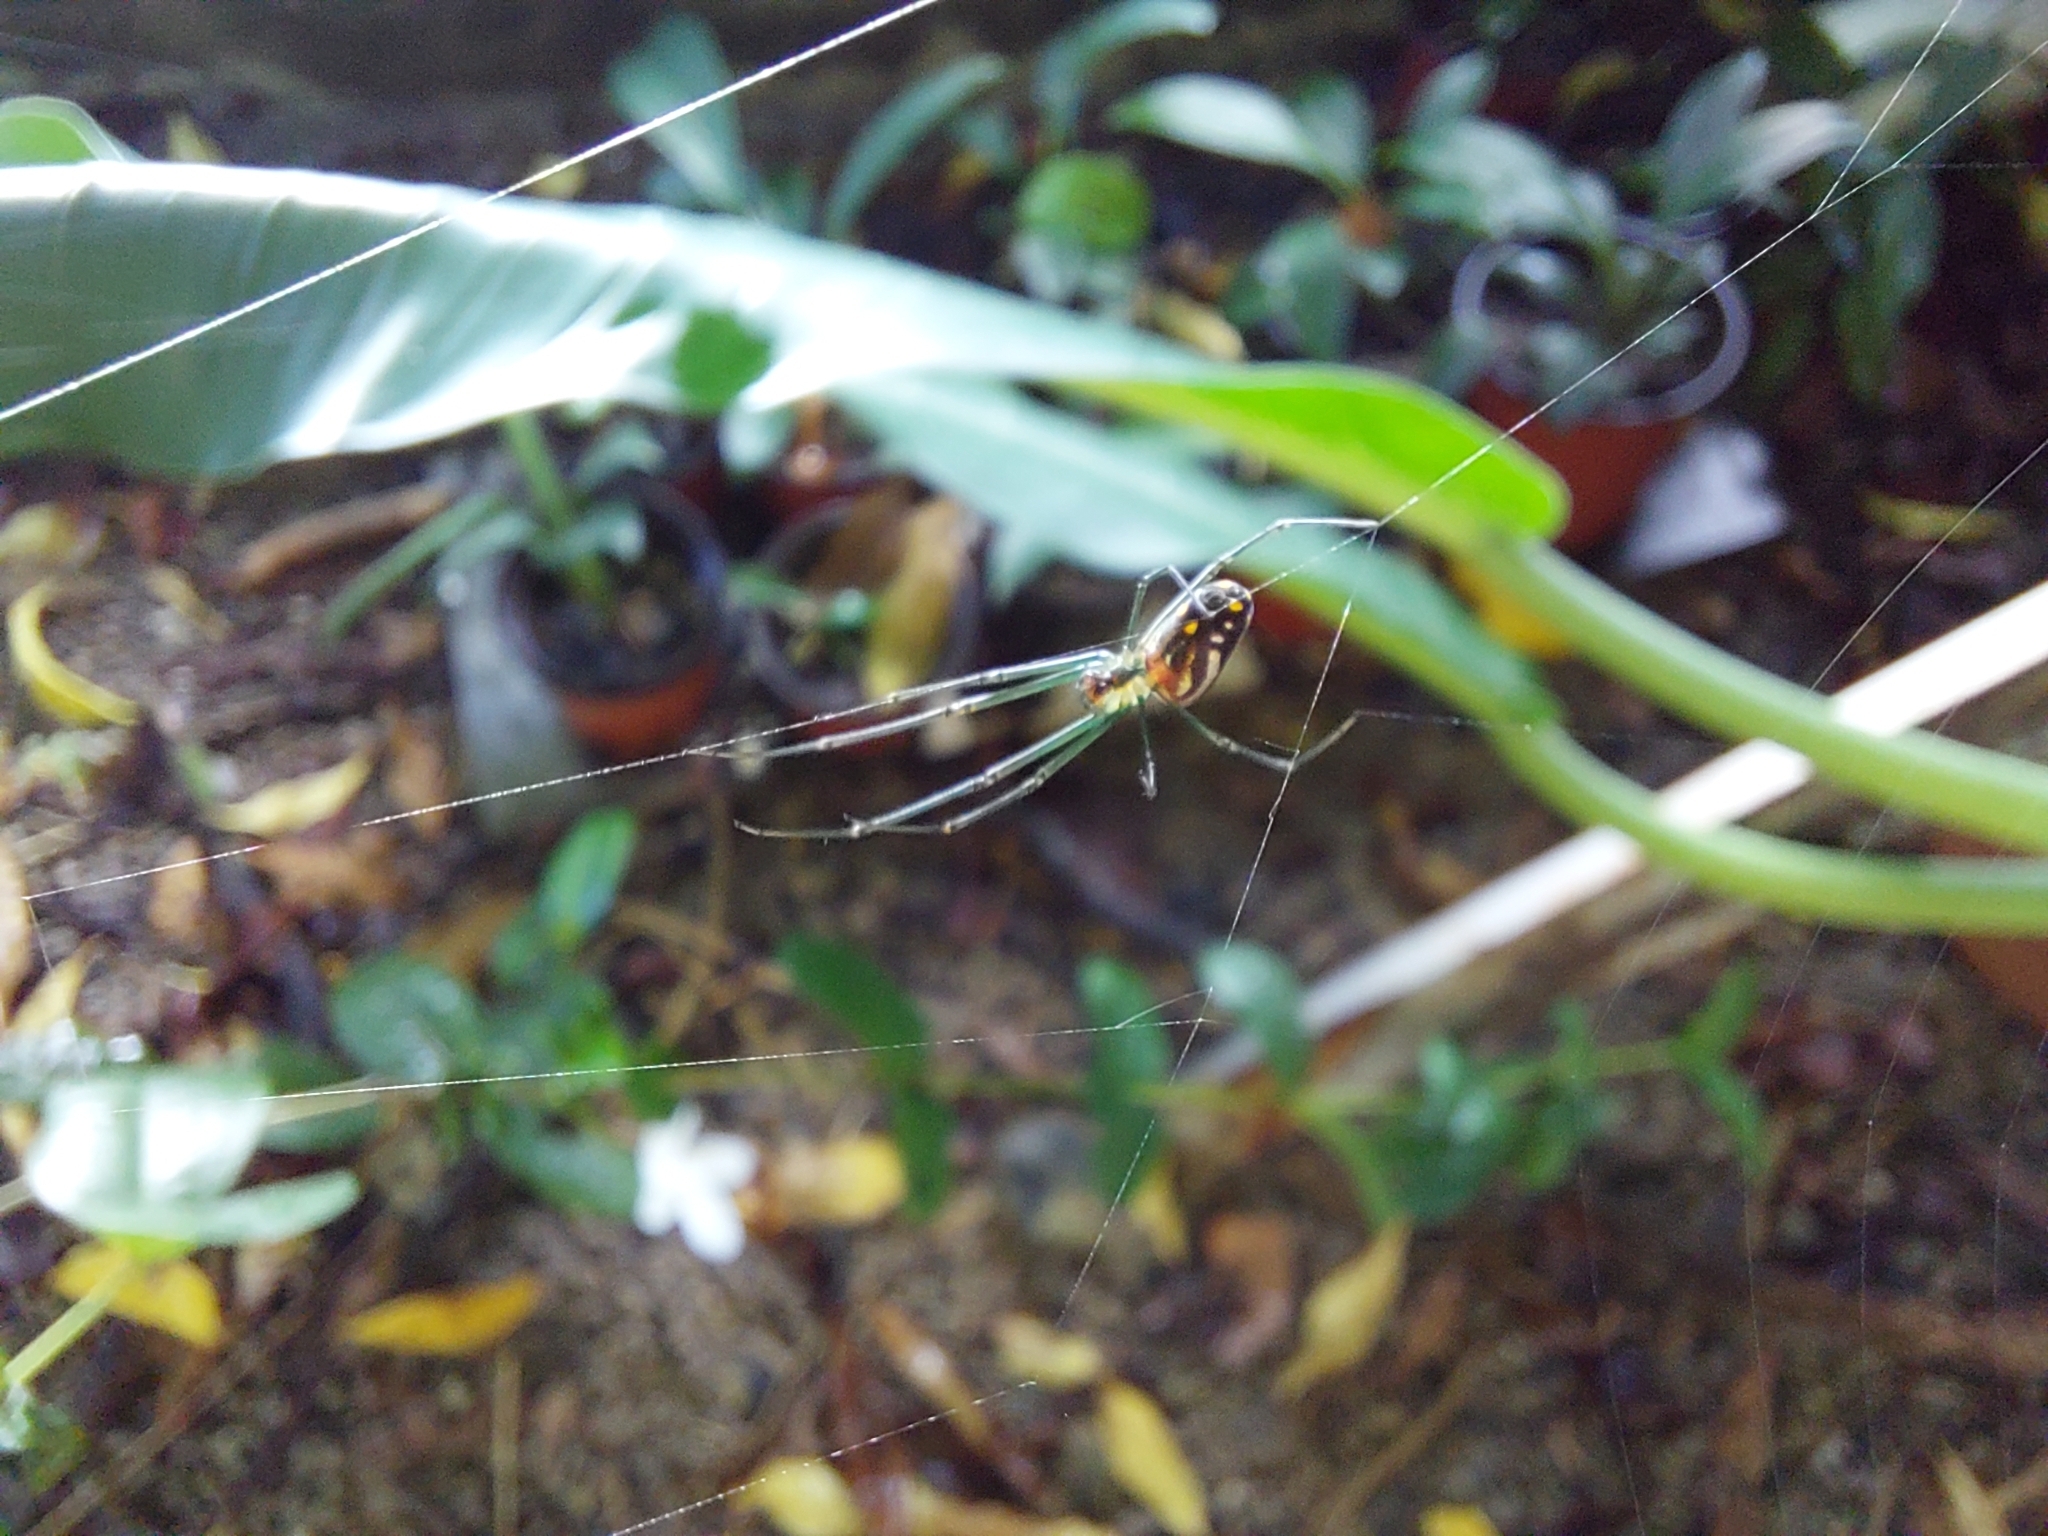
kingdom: Animalia
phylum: Arthropoda
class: Arachnida
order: Araneae
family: Tetragnathidae
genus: Leucauge
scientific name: Leucauge argyra
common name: Longjawed orb weavers
